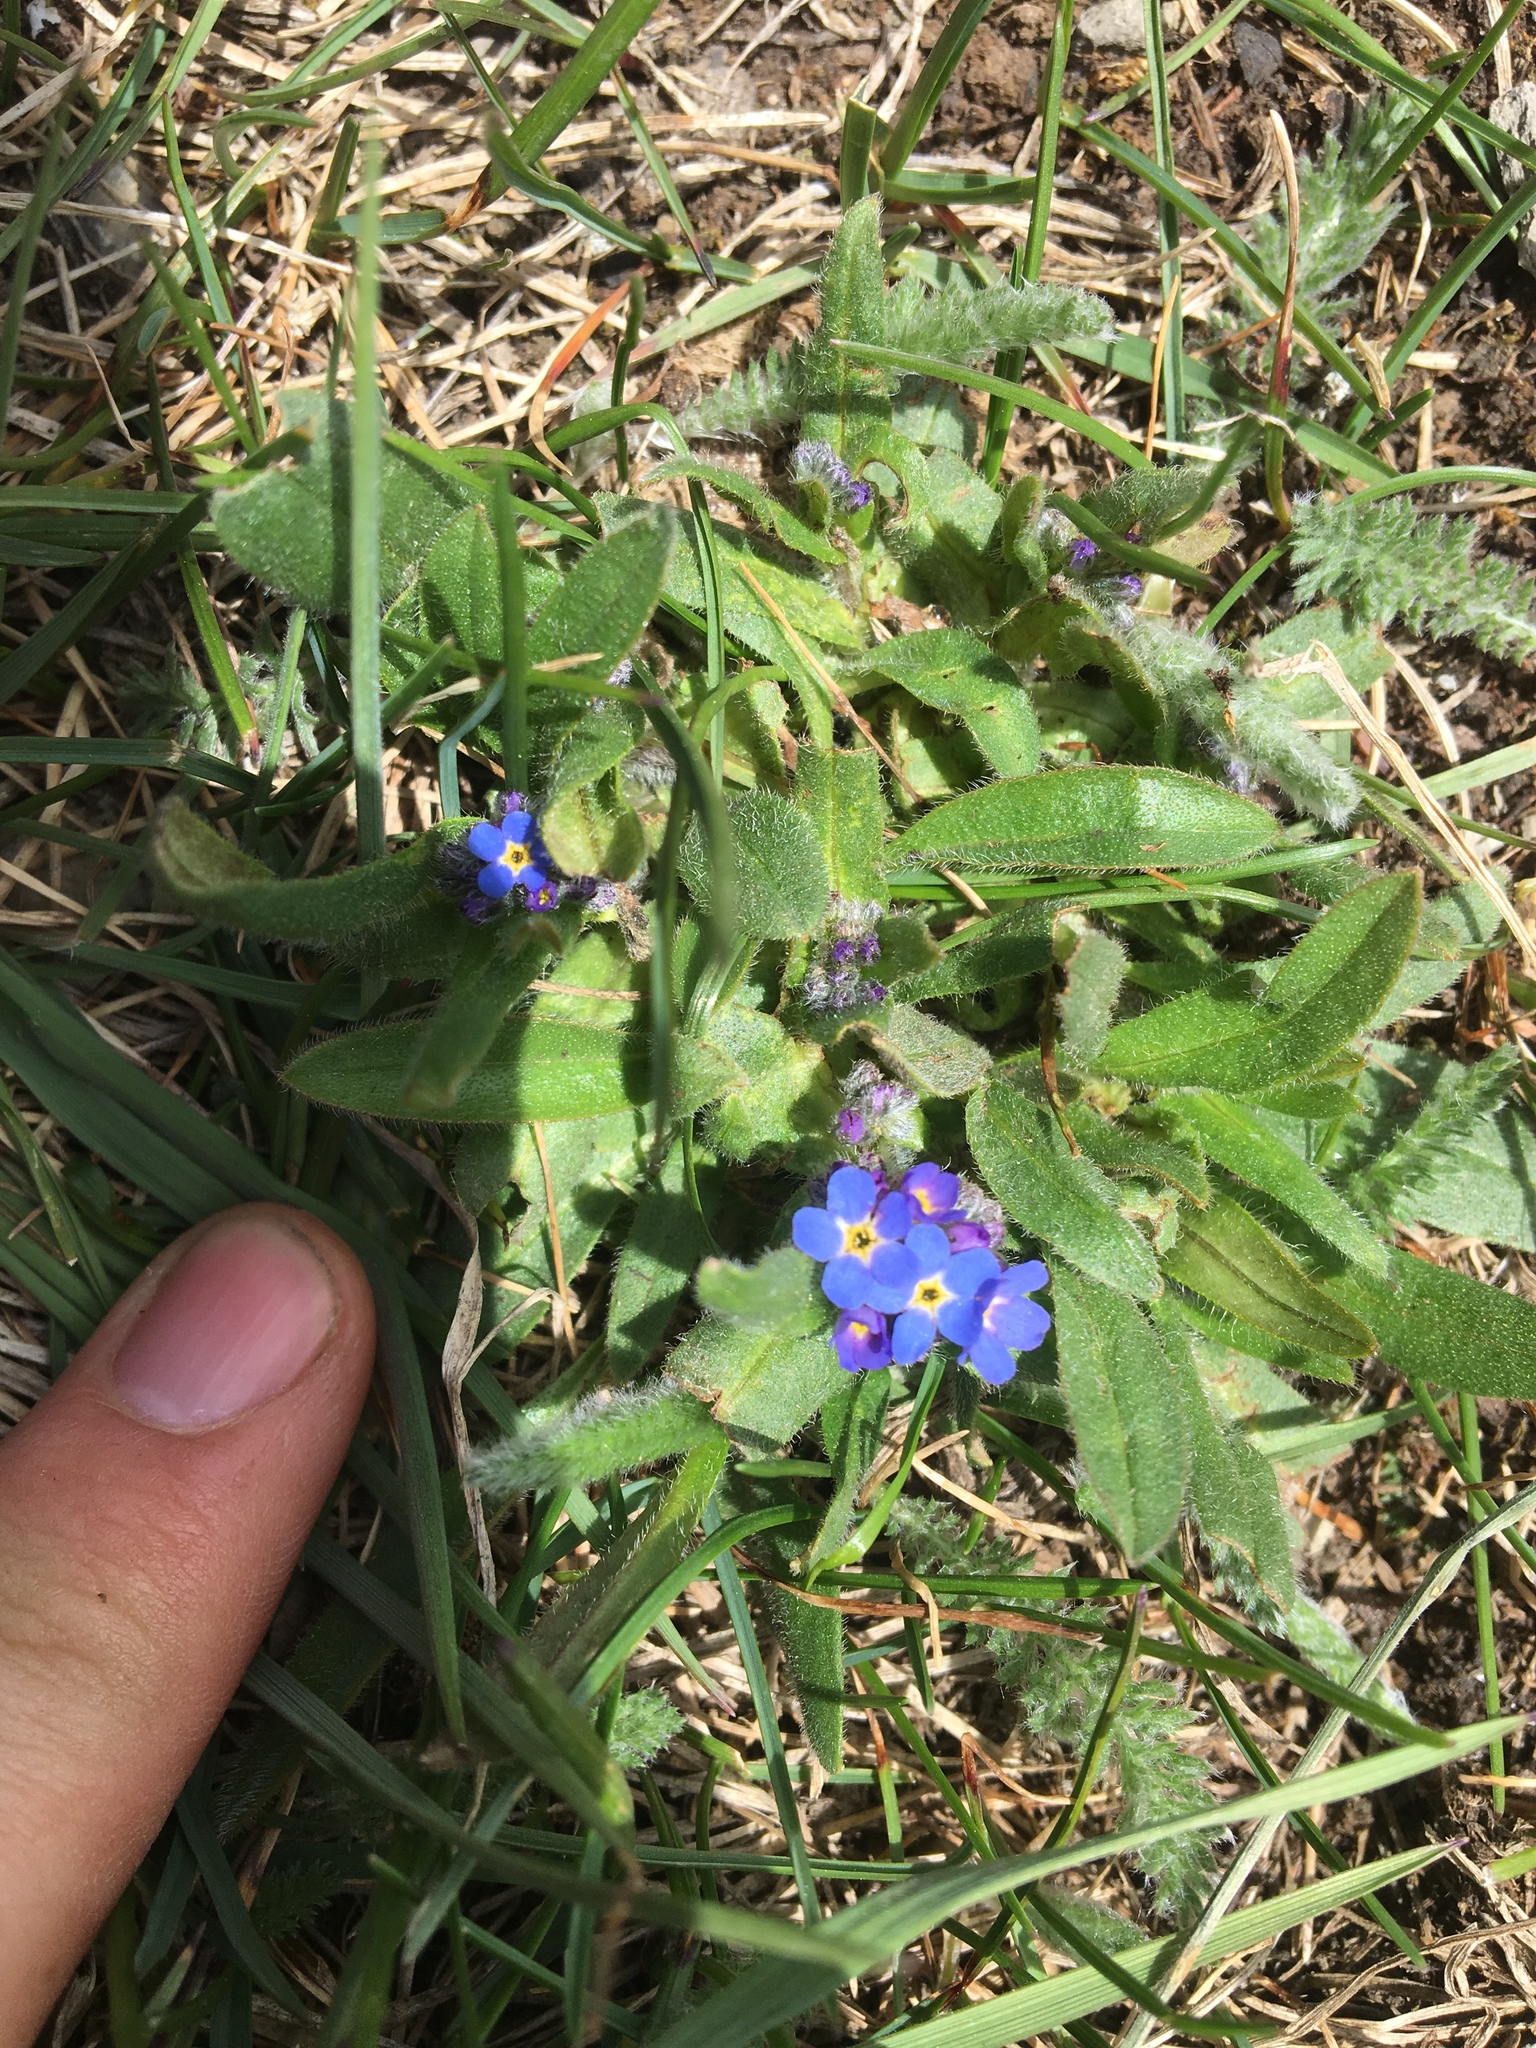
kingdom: Plantae
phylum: Tracheophyta
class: Magnoliopsida
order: Boraginales
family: Boraginaceae
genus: Myosotis
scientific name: Myosotis asiatica
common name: Asian forget-me-not
